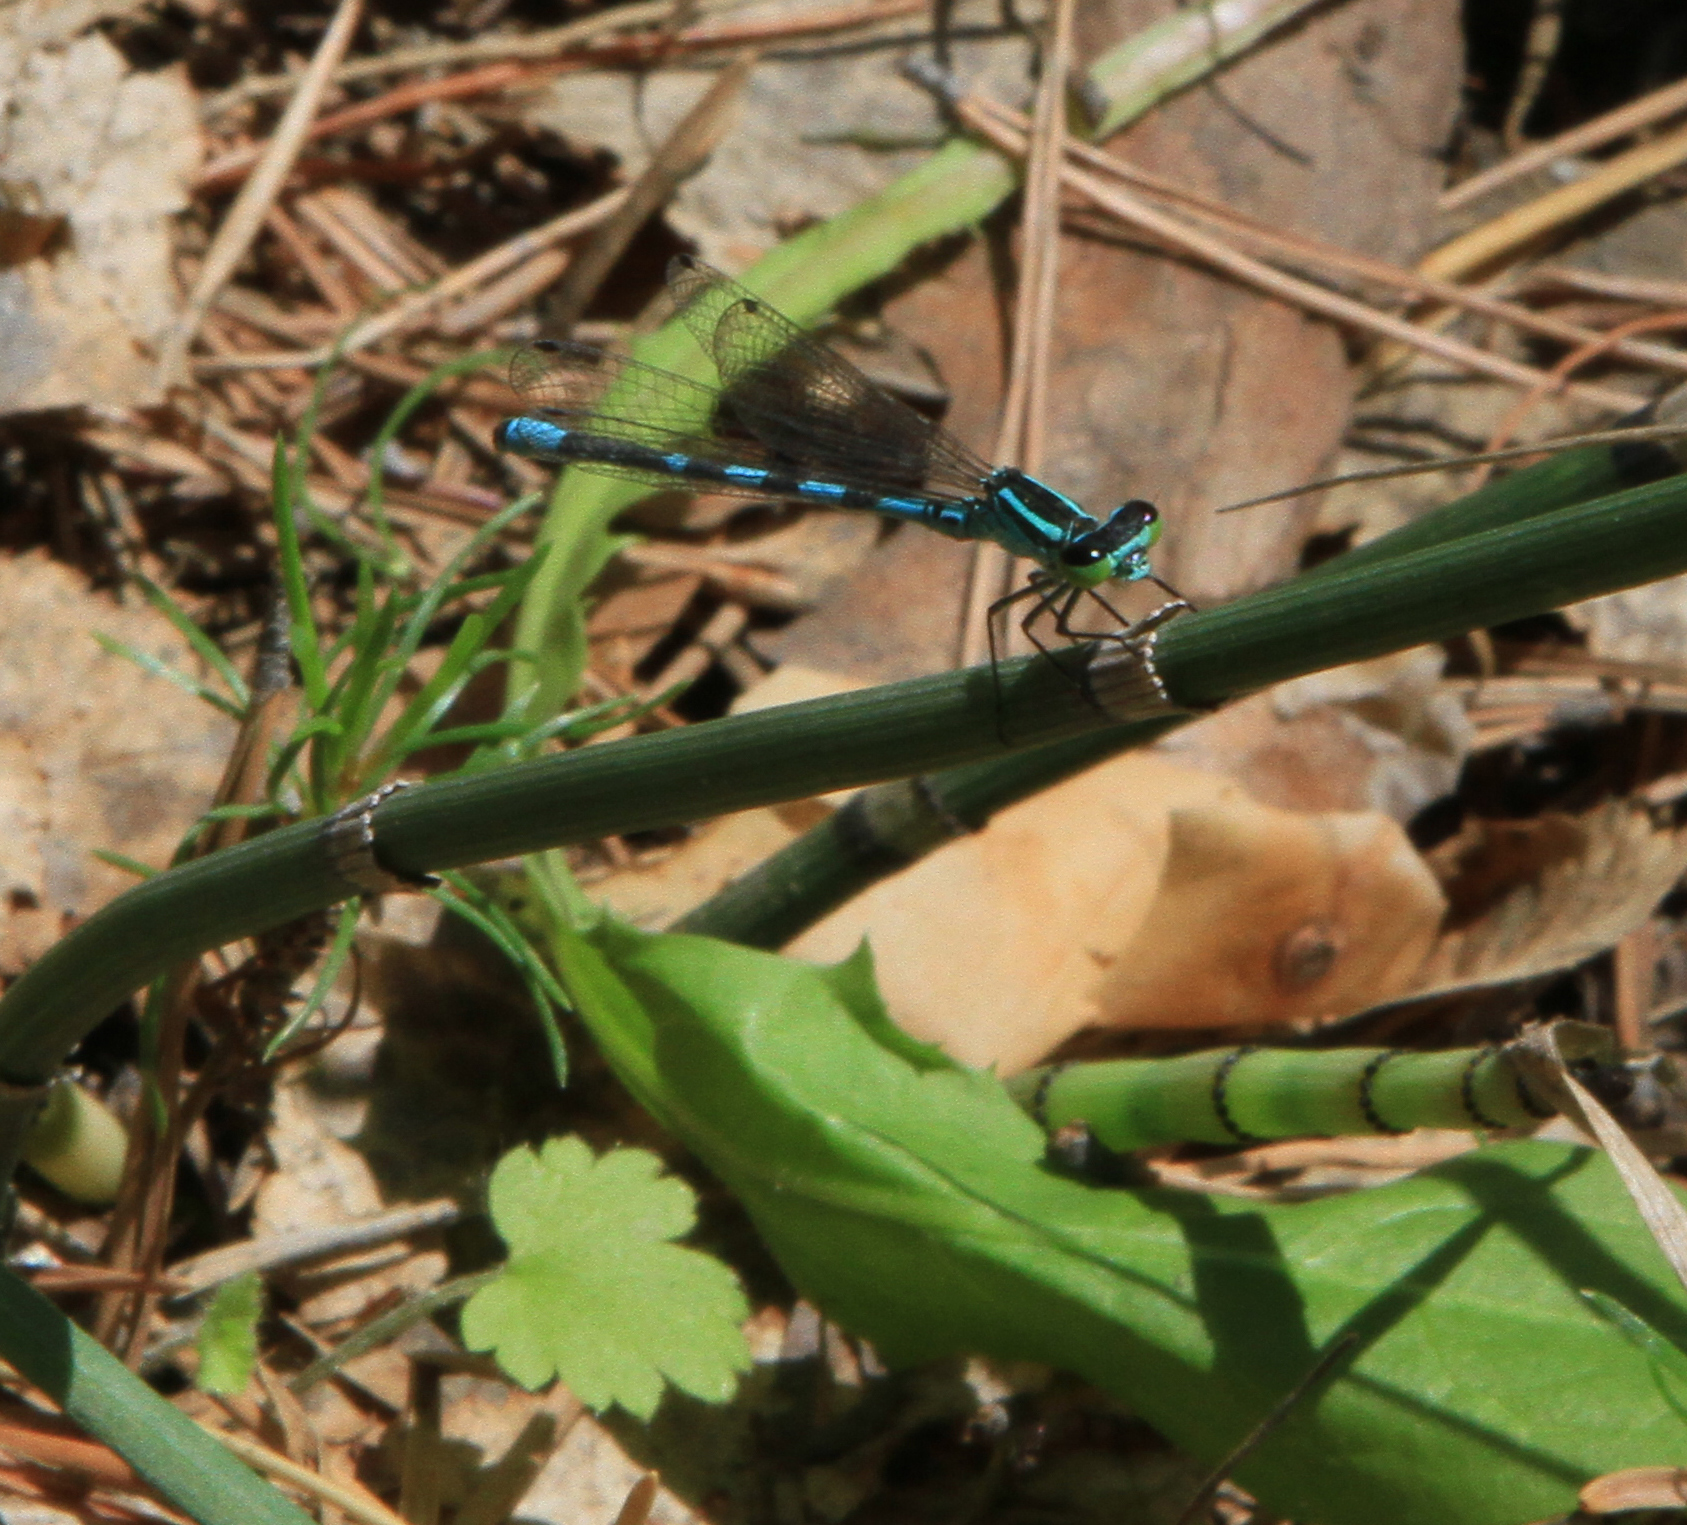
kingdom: Animalia
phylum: Arthropoda
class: Insecta
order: Odonata
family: Coenagrionidae
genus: Coenagrion
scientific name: Coenagrion hastulatum
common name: Spearhead bluet
